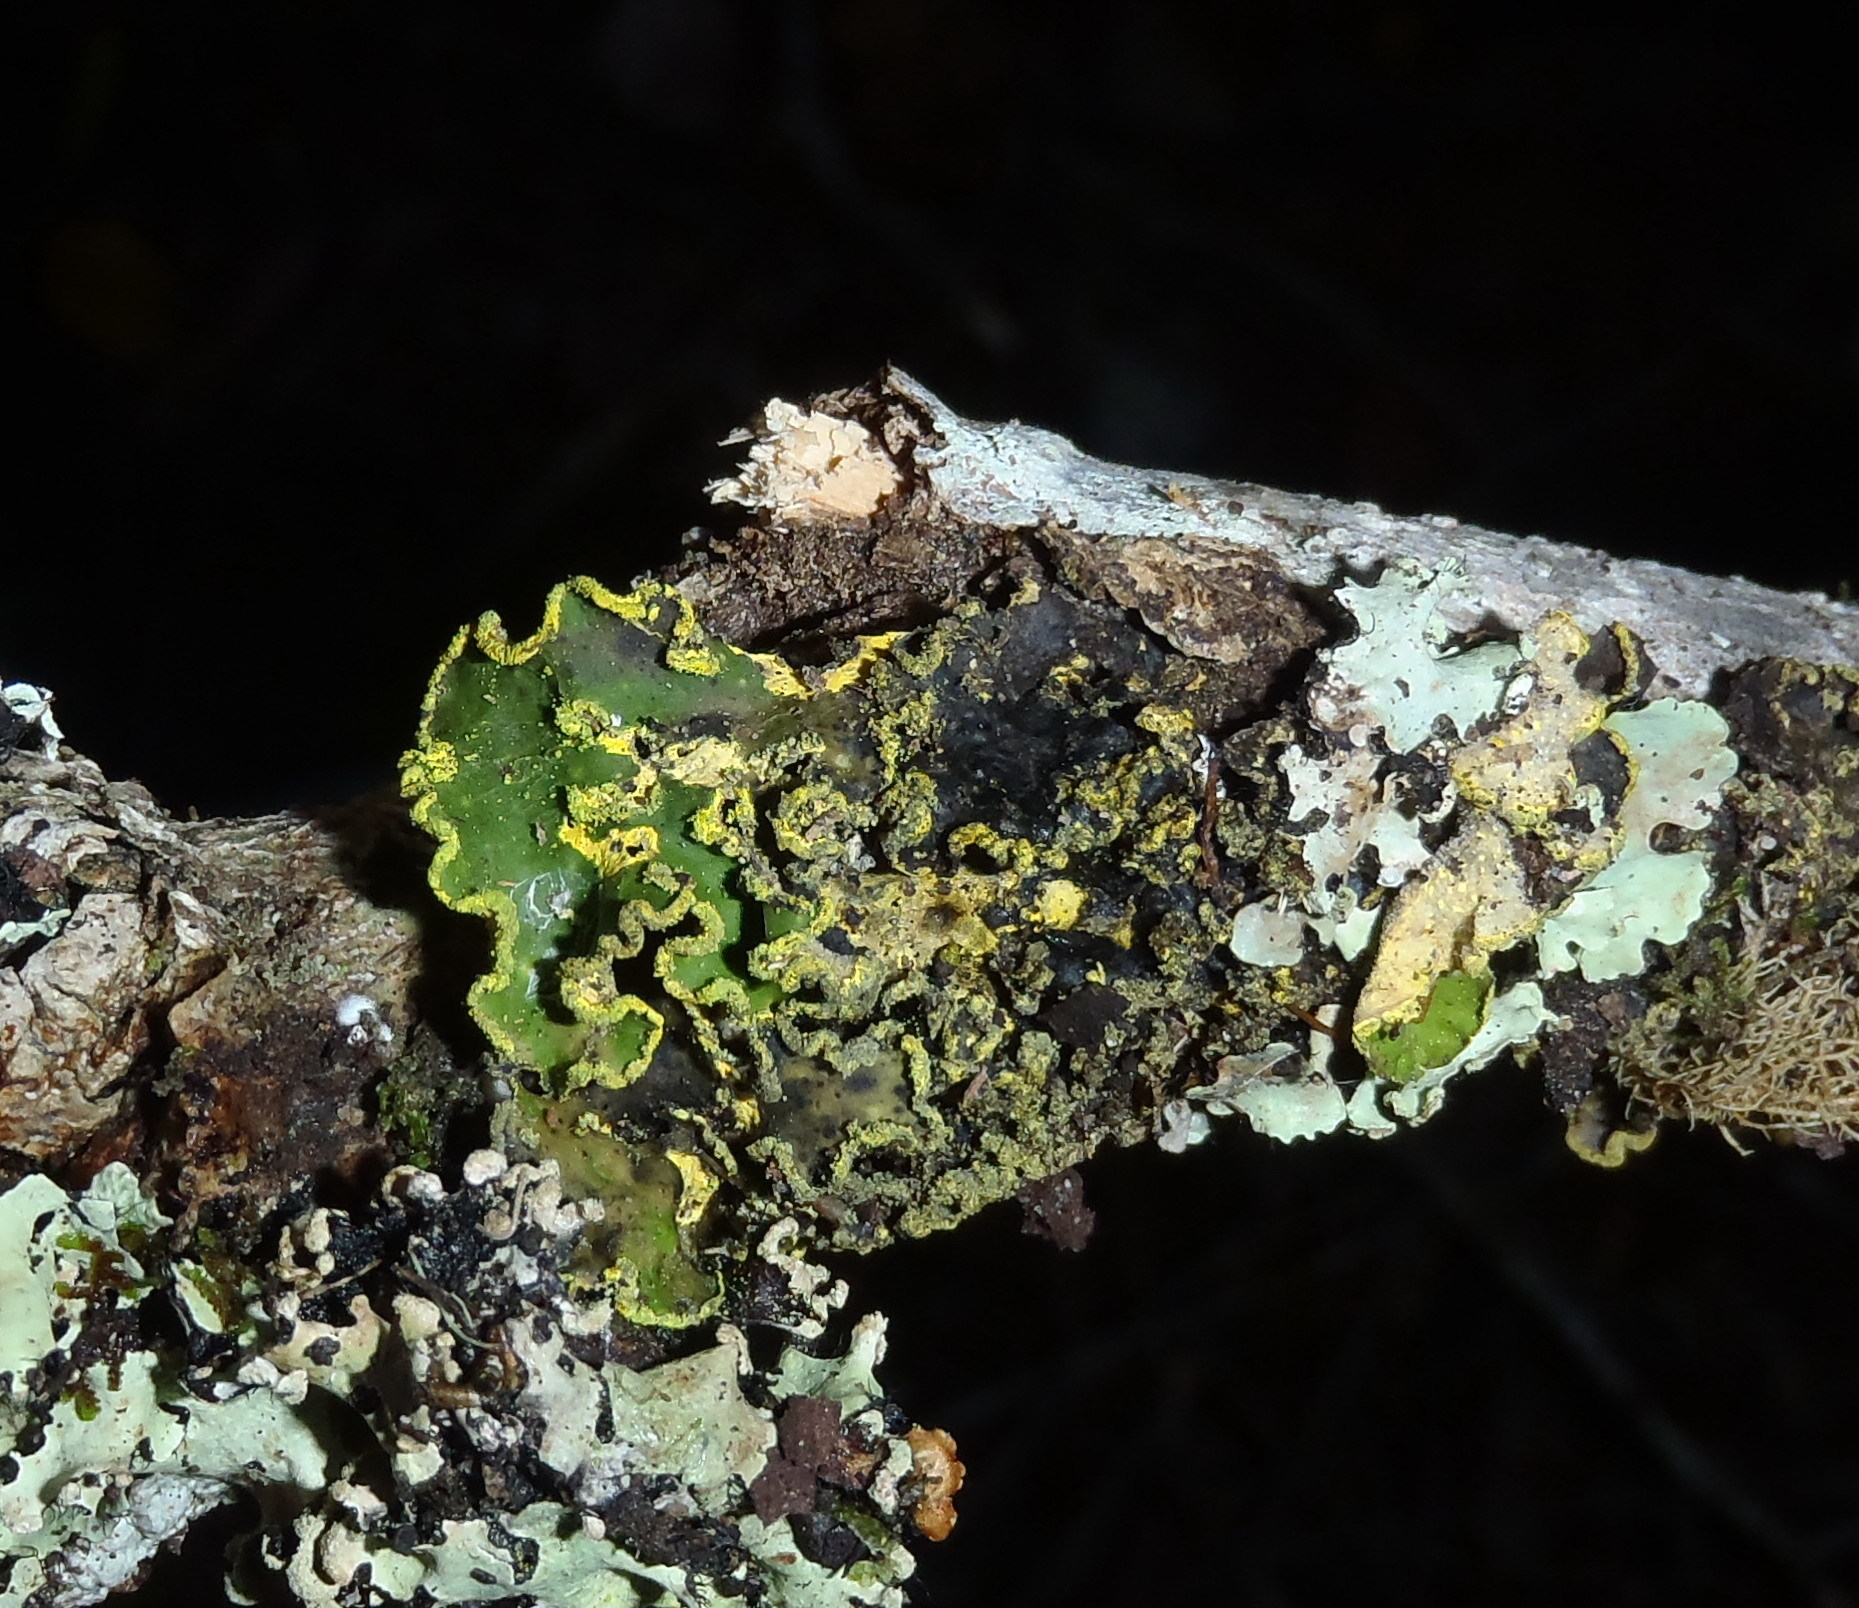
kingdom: Fungi
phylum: Ascomycota
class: Lecanoromycetes
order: Peltigerales
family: Lobariaceae
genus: Pseudocyphellaria
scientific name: Pseudocyphellaria aurata
